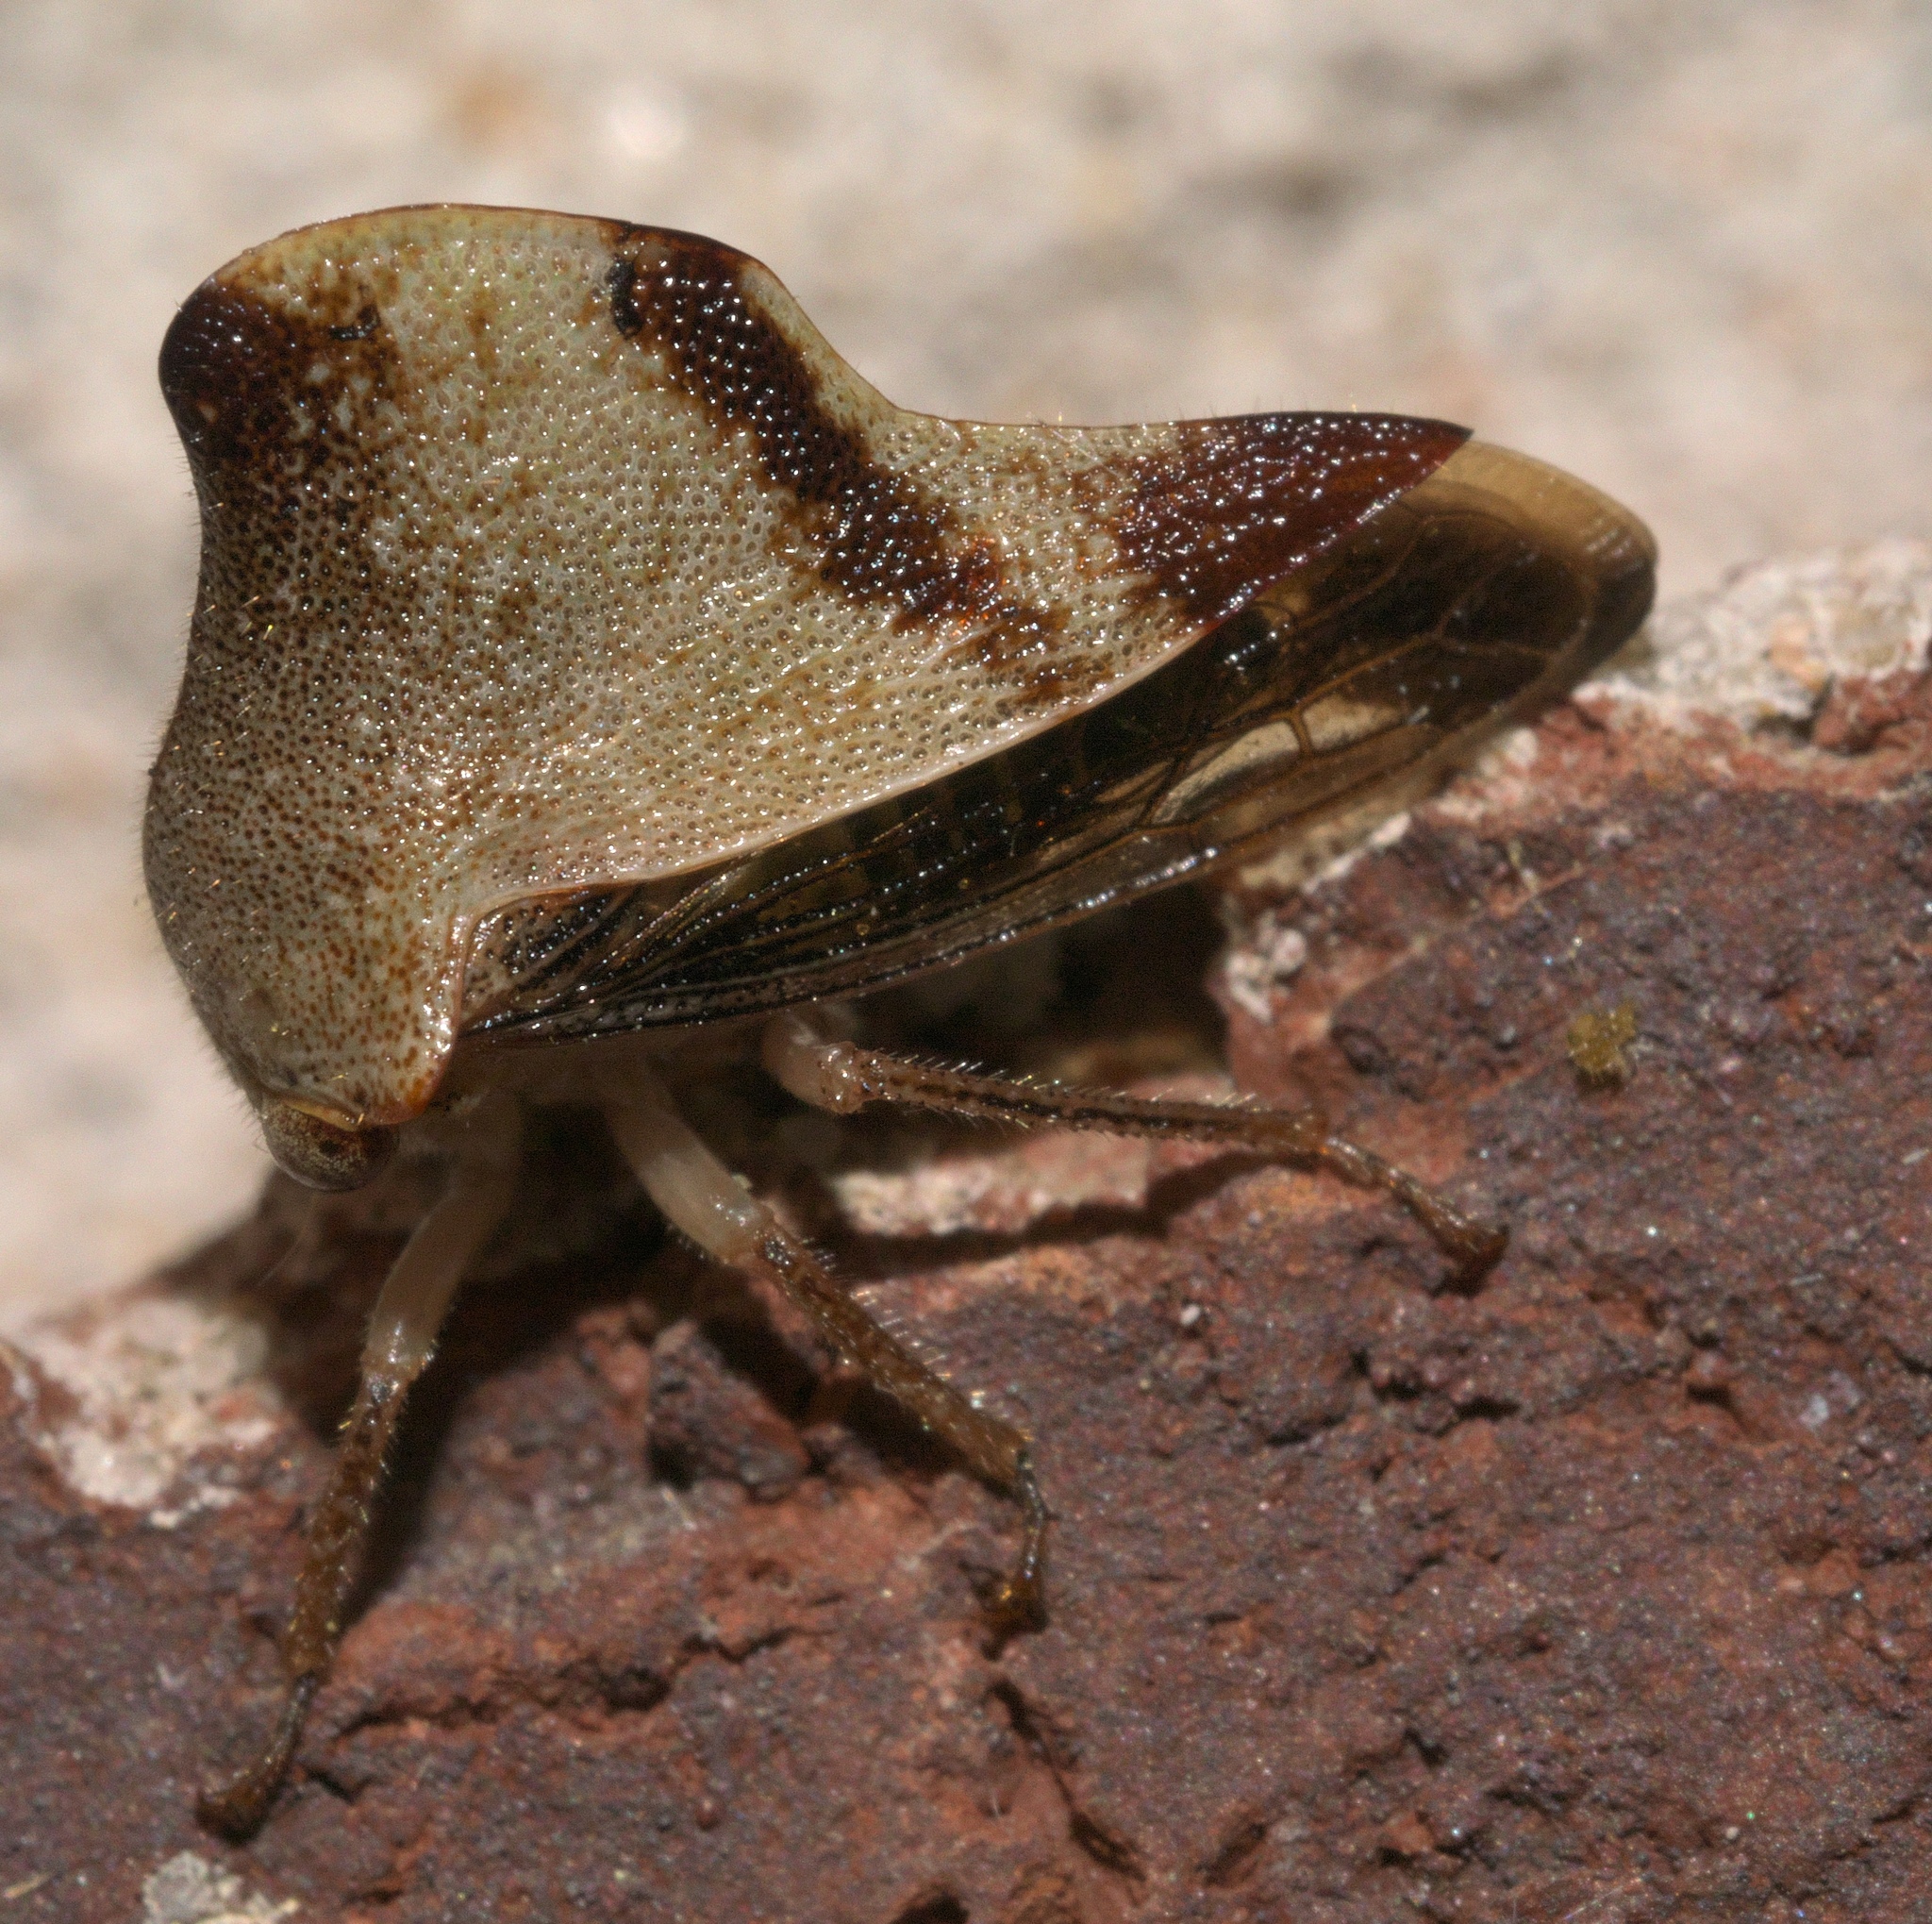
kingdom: Animalia
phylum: Arthropoda
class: Insecta
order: Hemiptera
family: Membracidae
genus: Helonica
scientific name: Helonica excelsa
